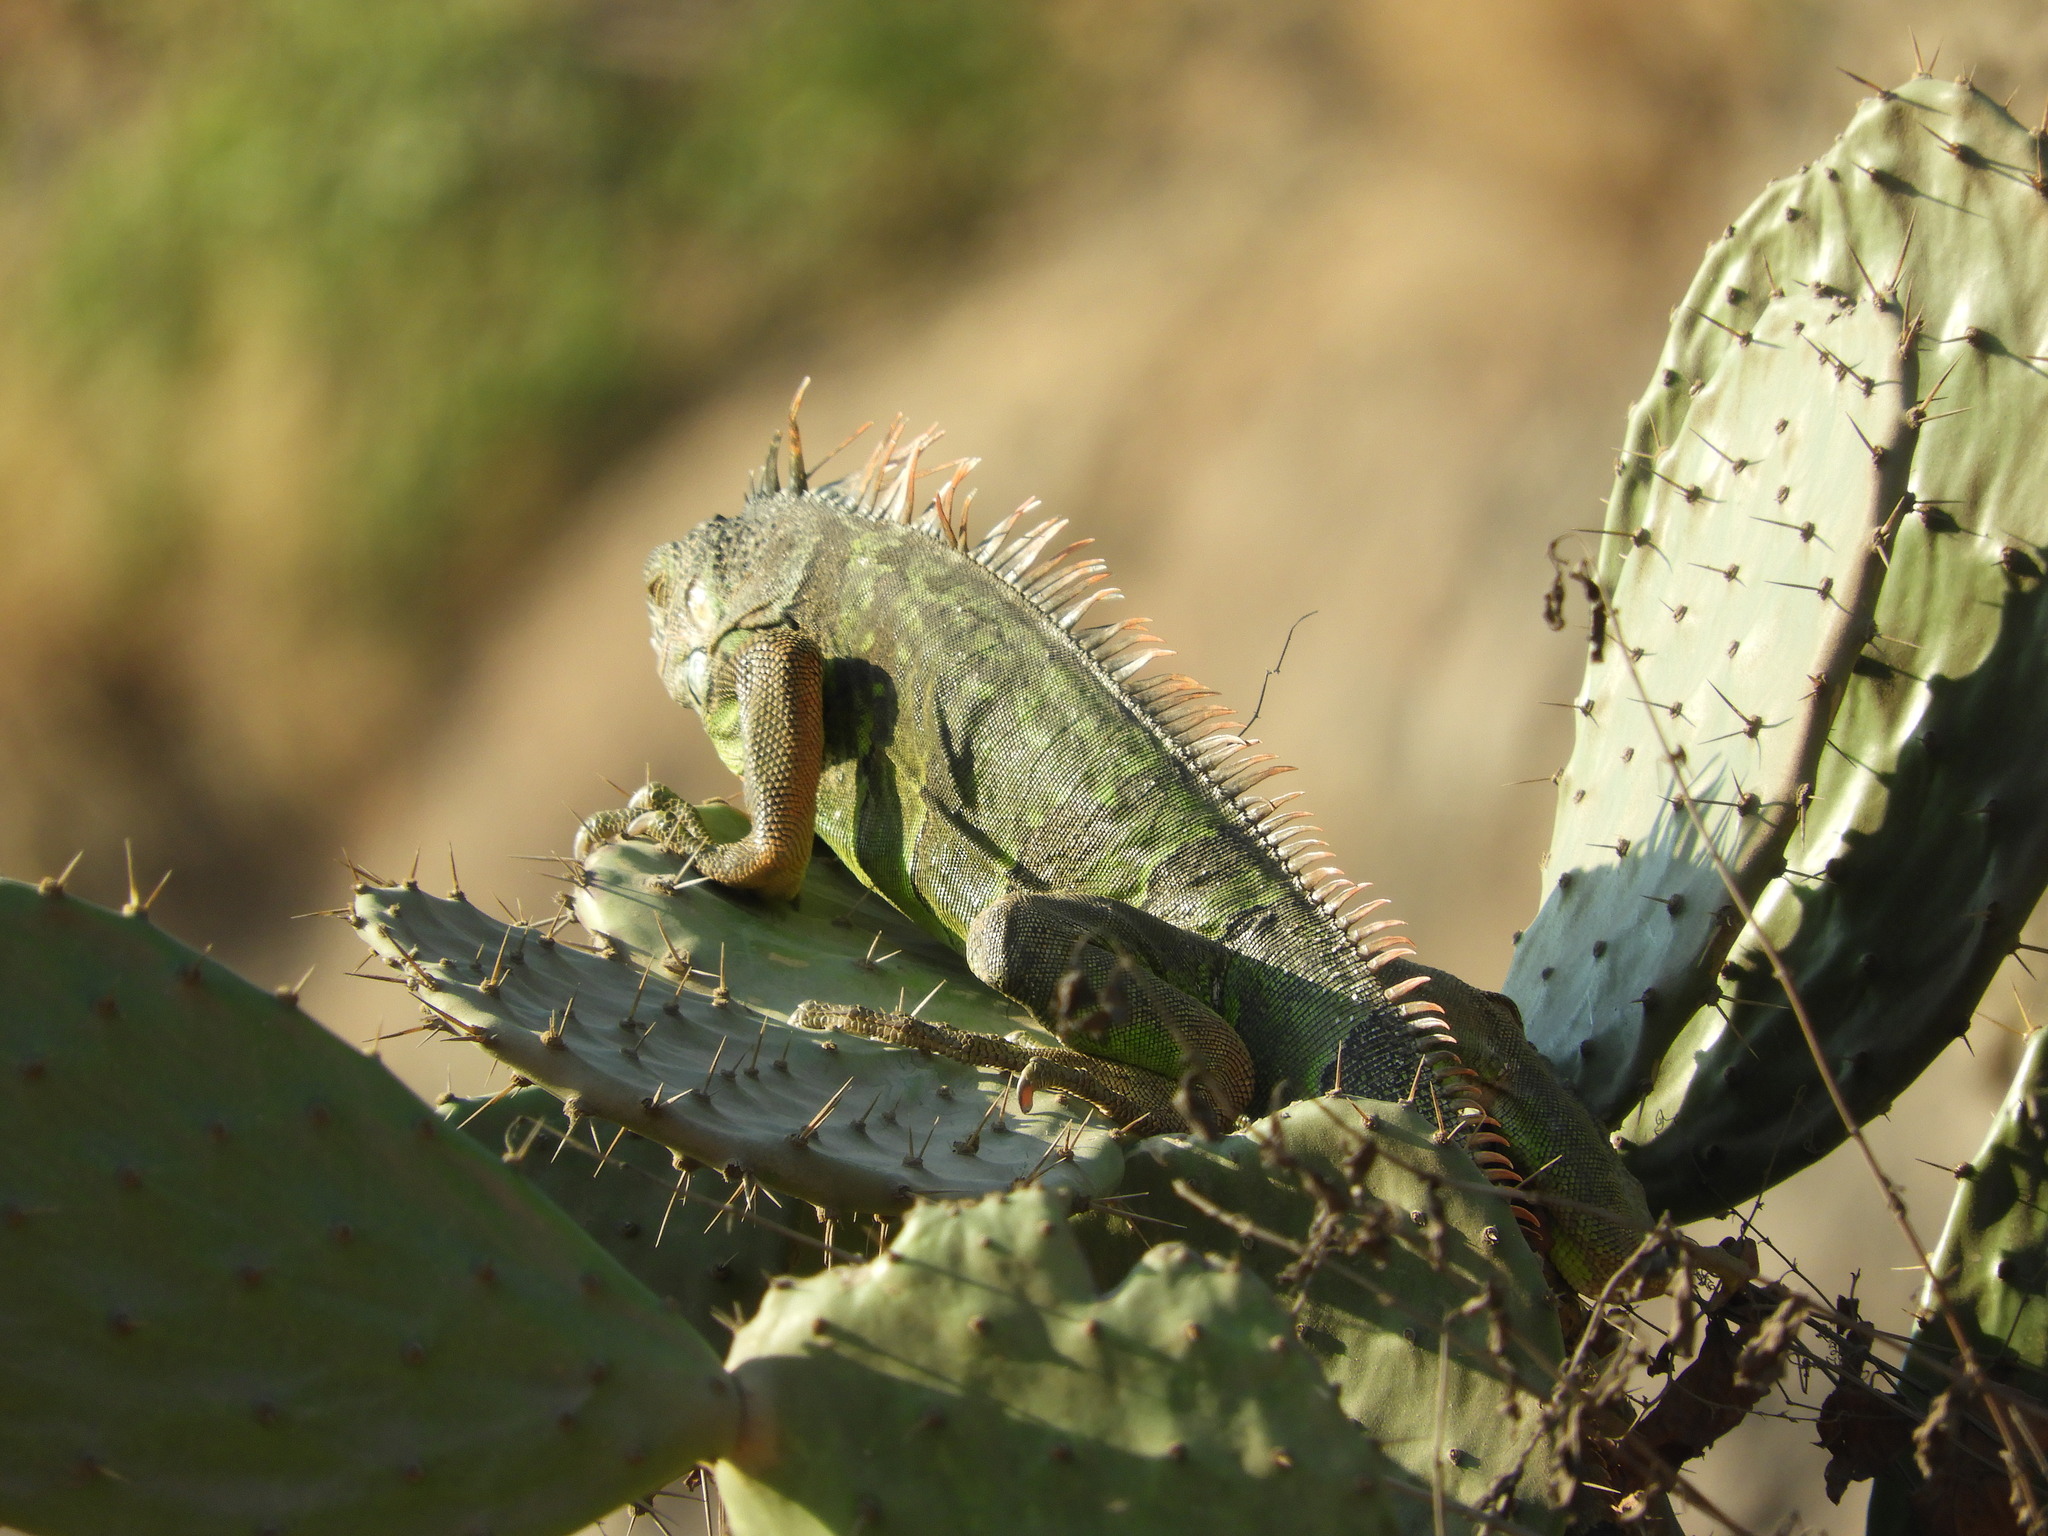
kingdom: Animalia
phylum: Chordata
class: Squamata
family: Iguanidae
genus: Iguana
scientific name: Iguana iguana
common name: Green iguana
